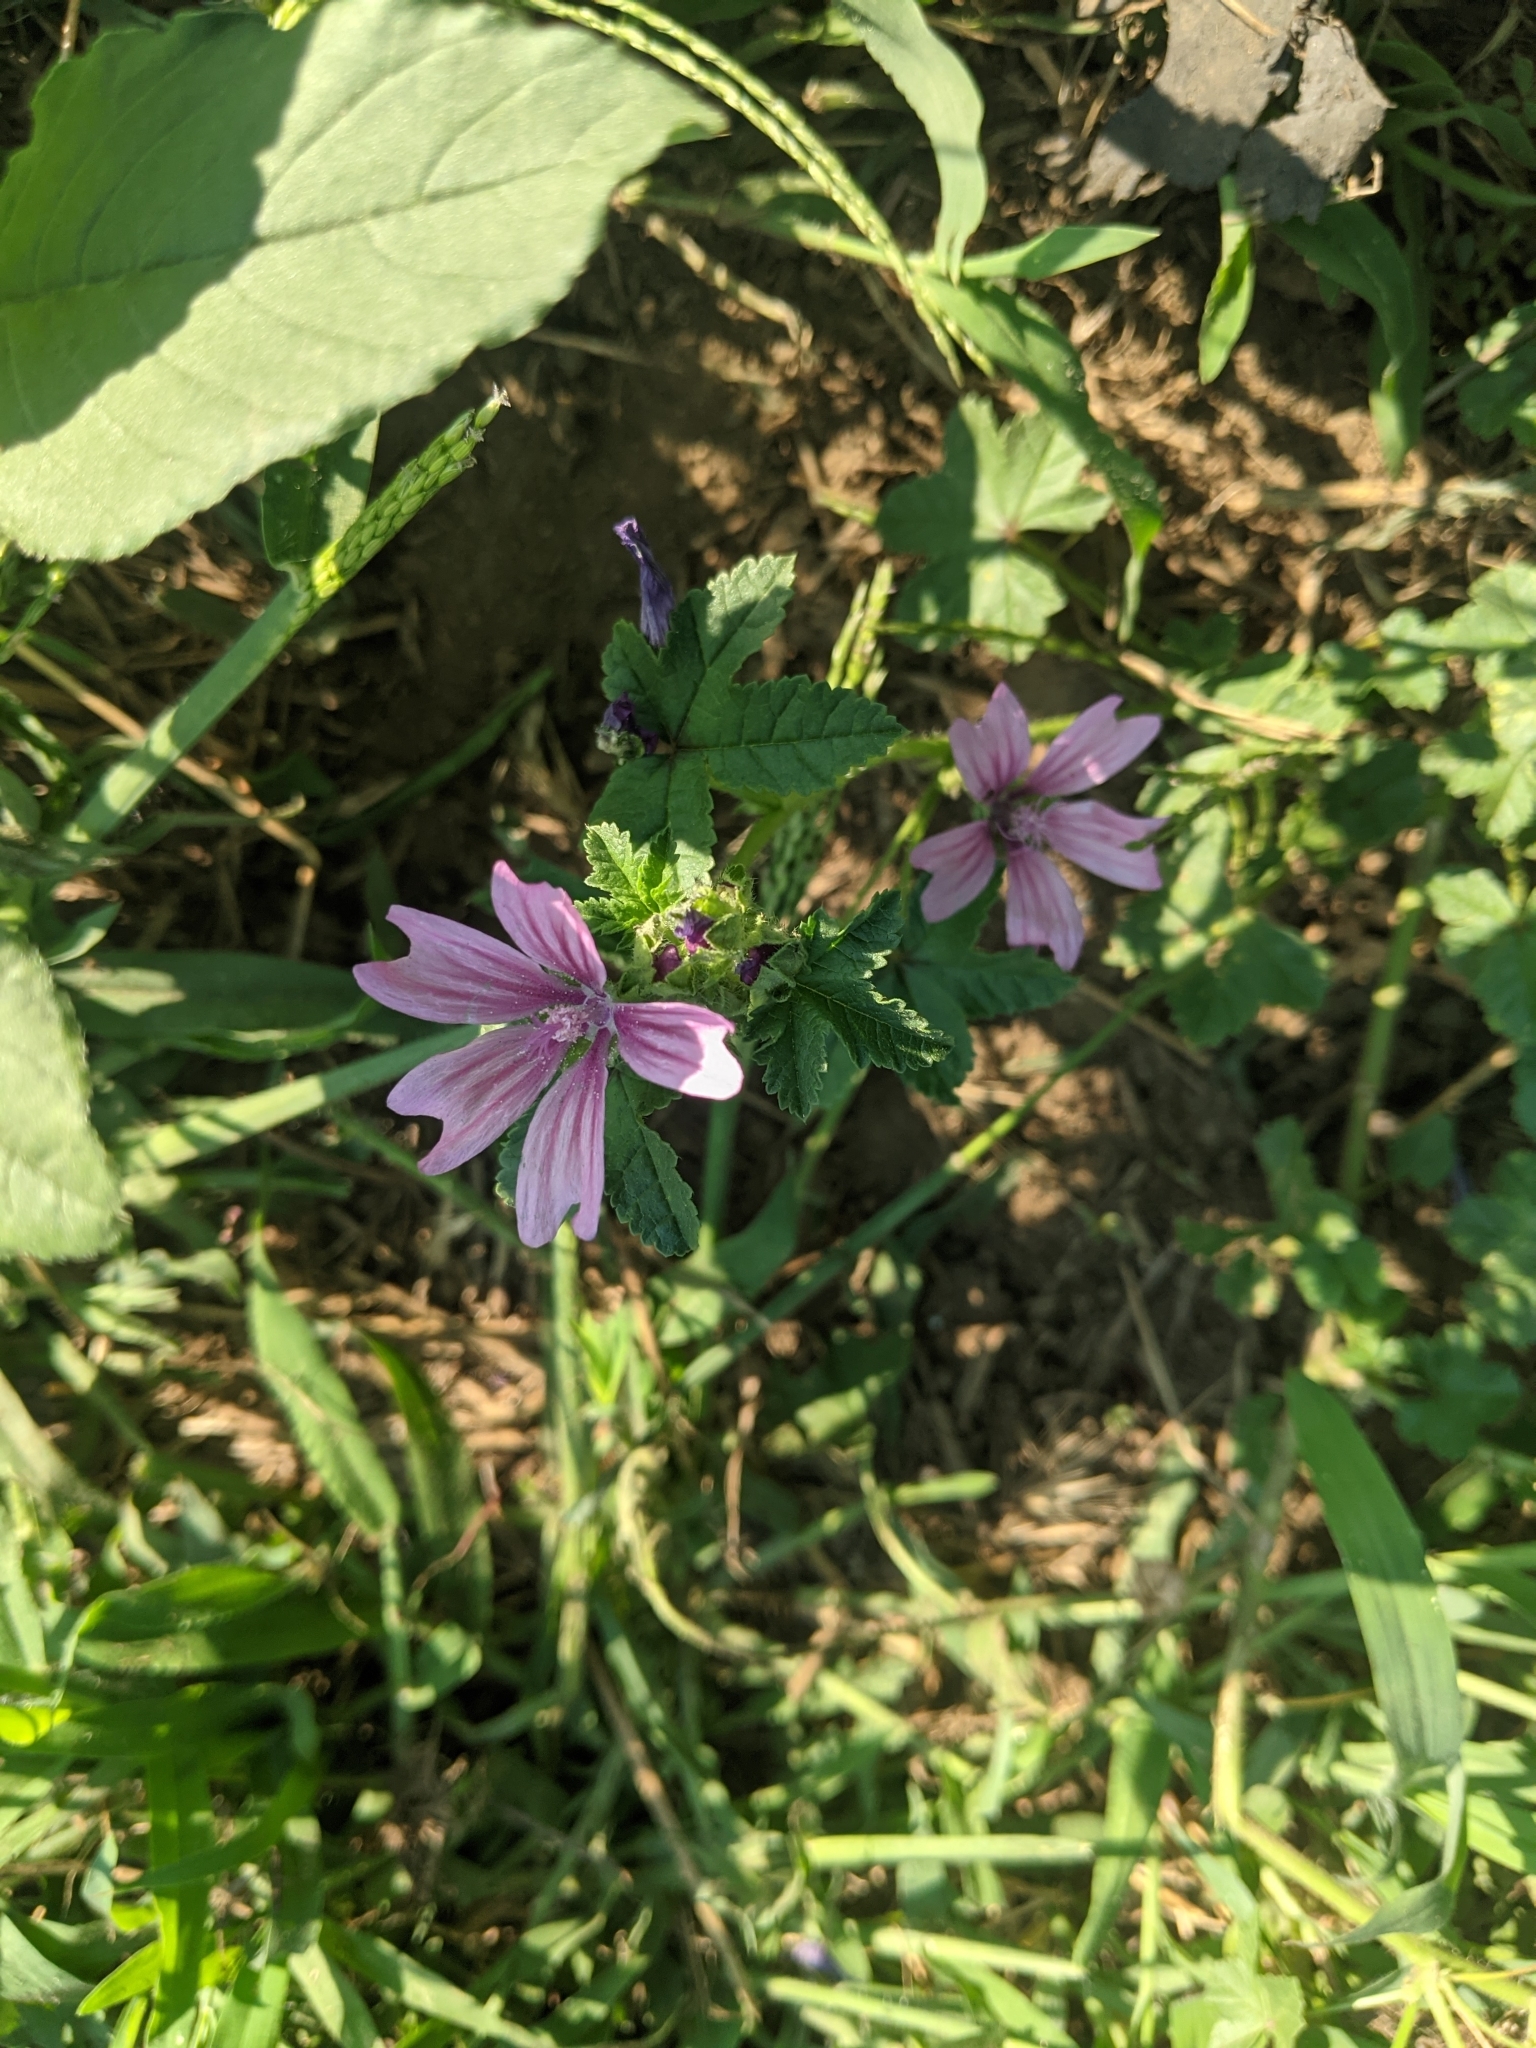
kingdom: Plantae
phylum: Tracheophyta
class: Magnoliopsida
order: Malvales
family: Malvaceae
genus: Malva
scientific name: Malva sylvestris
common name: Common mallow
